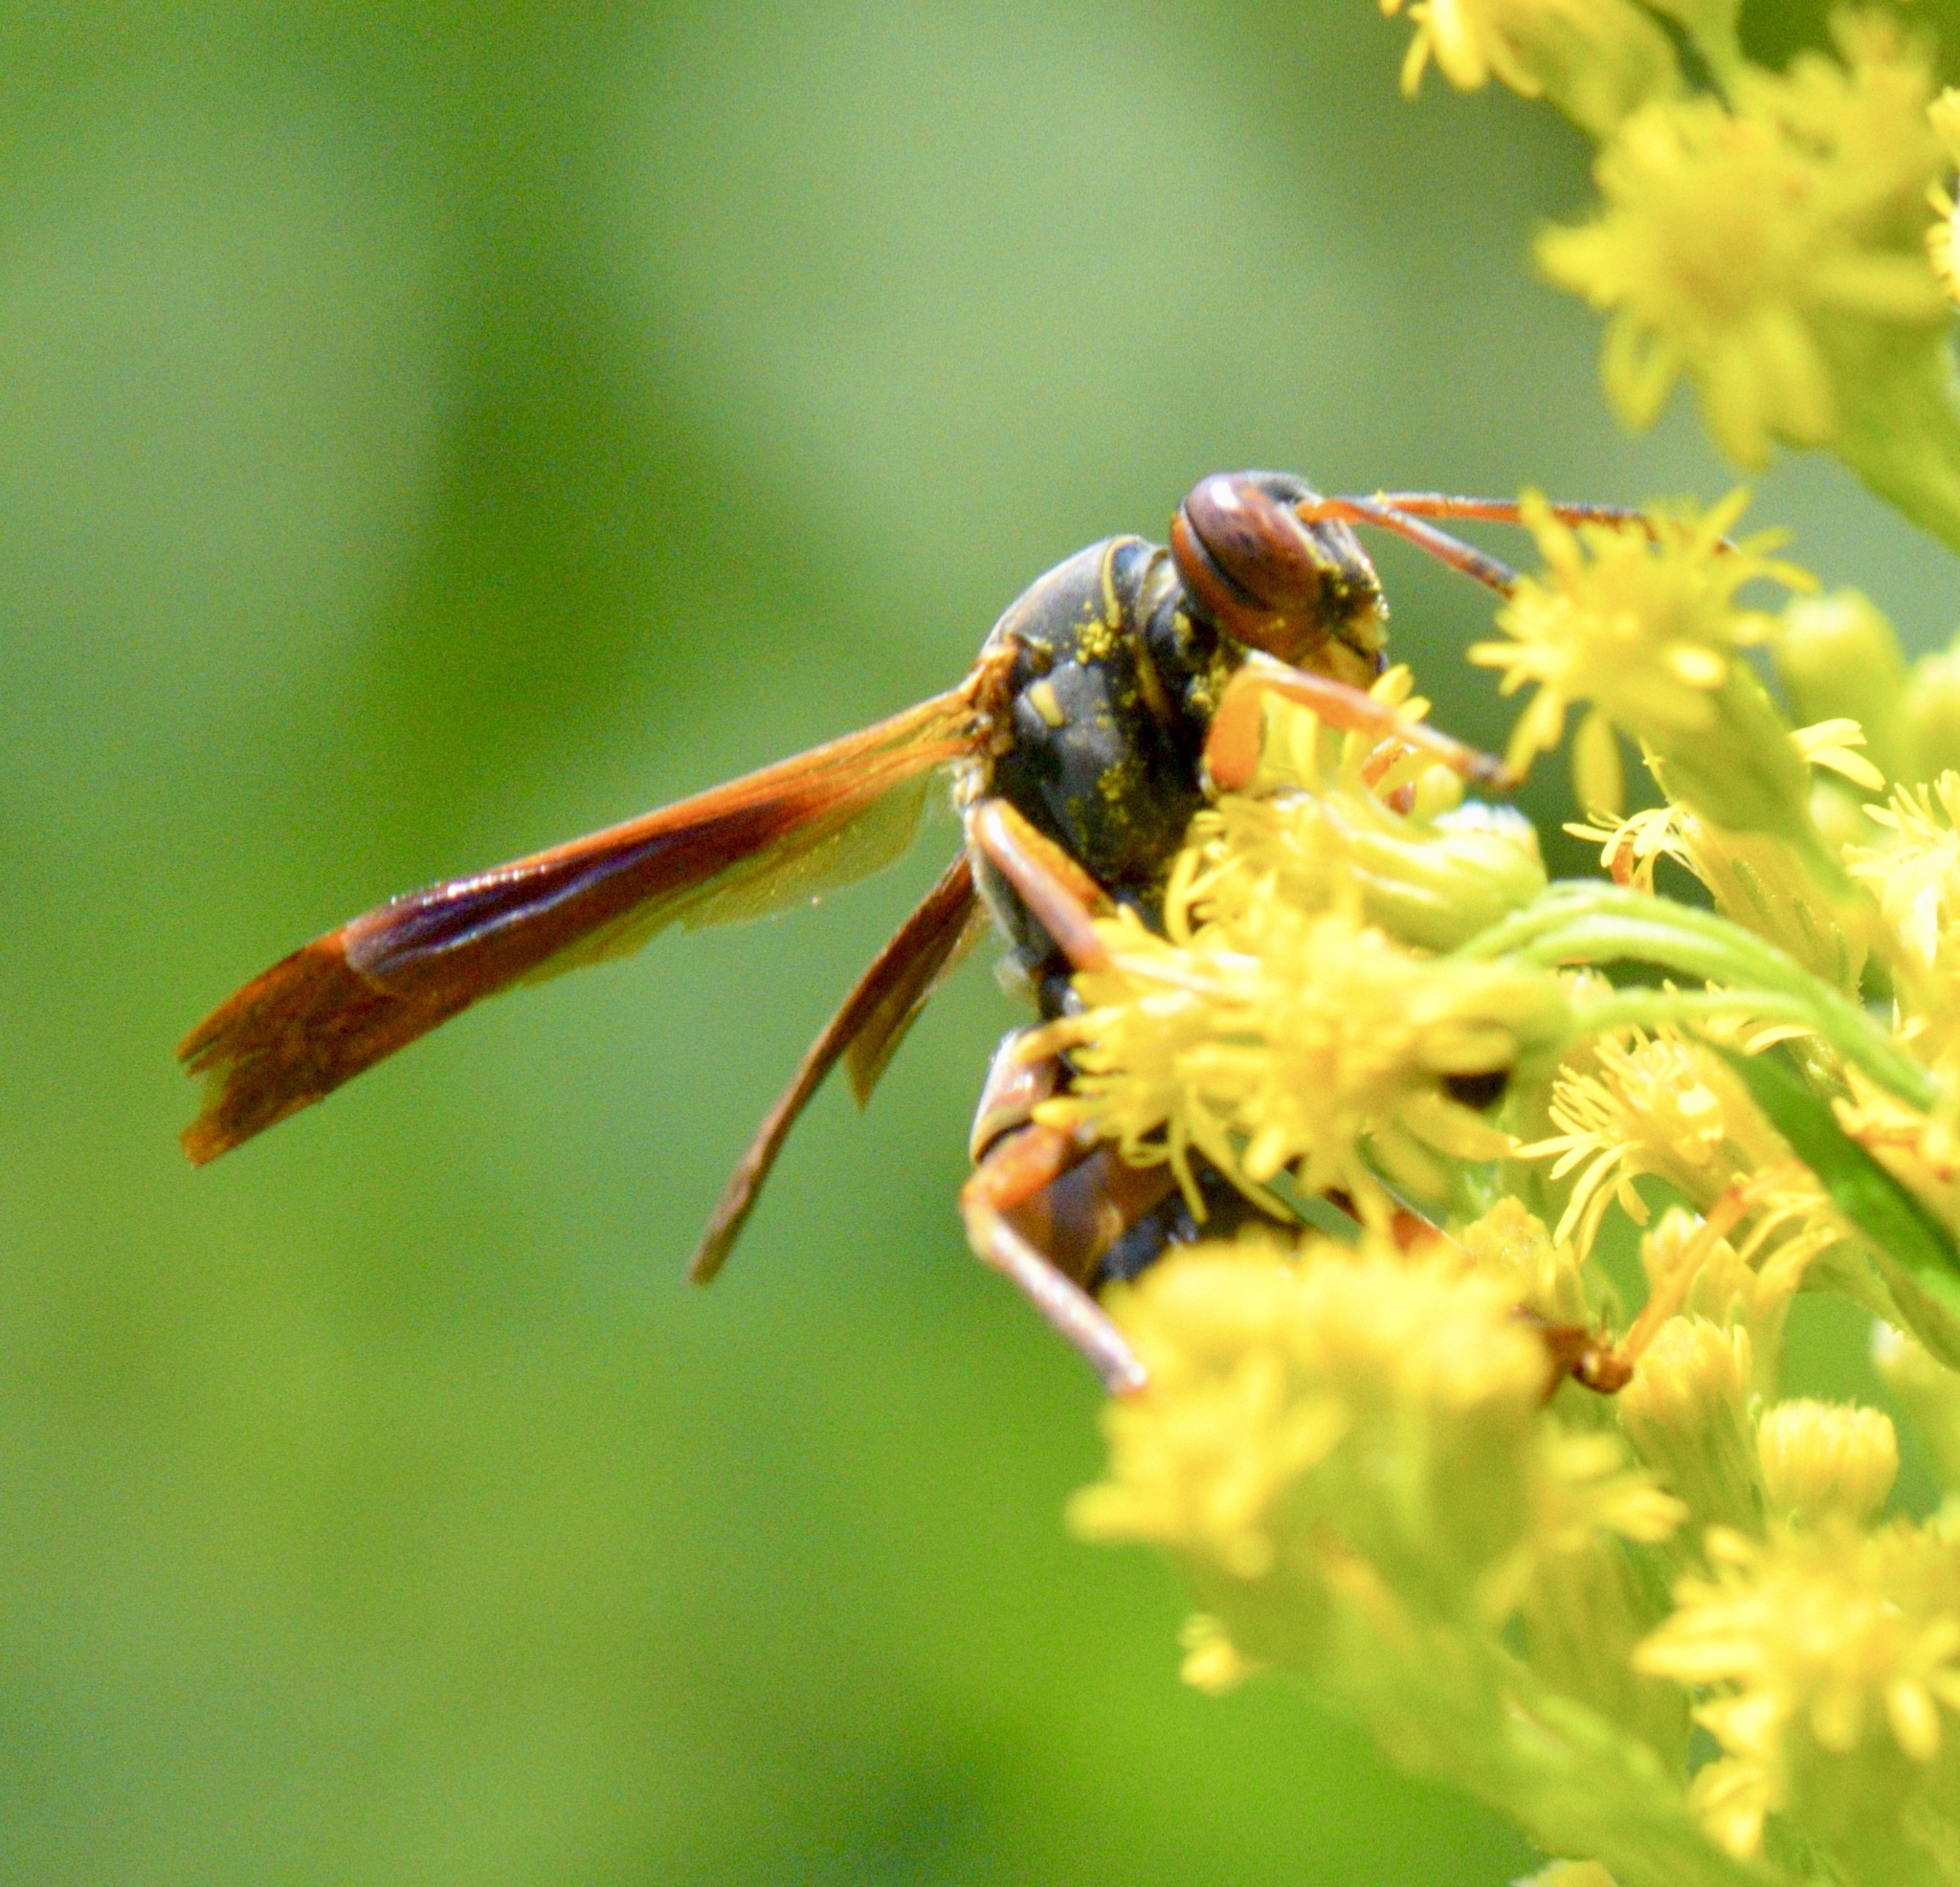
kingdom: Animalia
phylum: Arthropoda
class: Insecta
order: Hymenoptera
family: Eumenidae
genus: Polistes
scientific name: Polistes fuscatus
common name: Dark paper wasp
